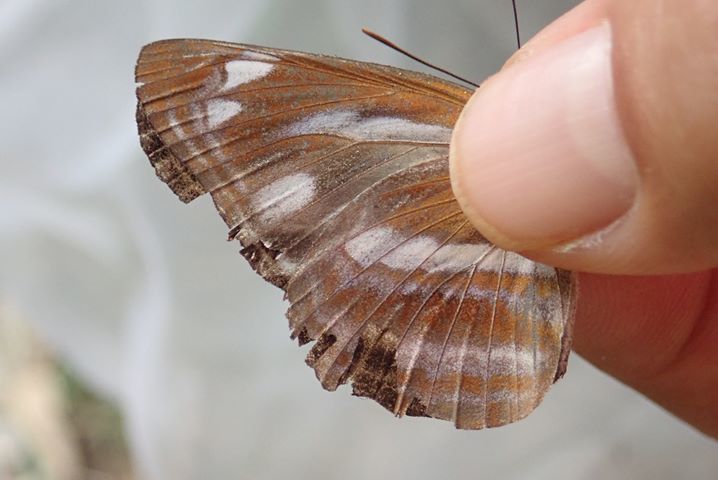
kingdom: Animalia
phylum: Arthropoda
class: Insecta
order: Lepidoptera
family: Nymphalidae
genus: Neptis
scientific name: Neptis taiwana
